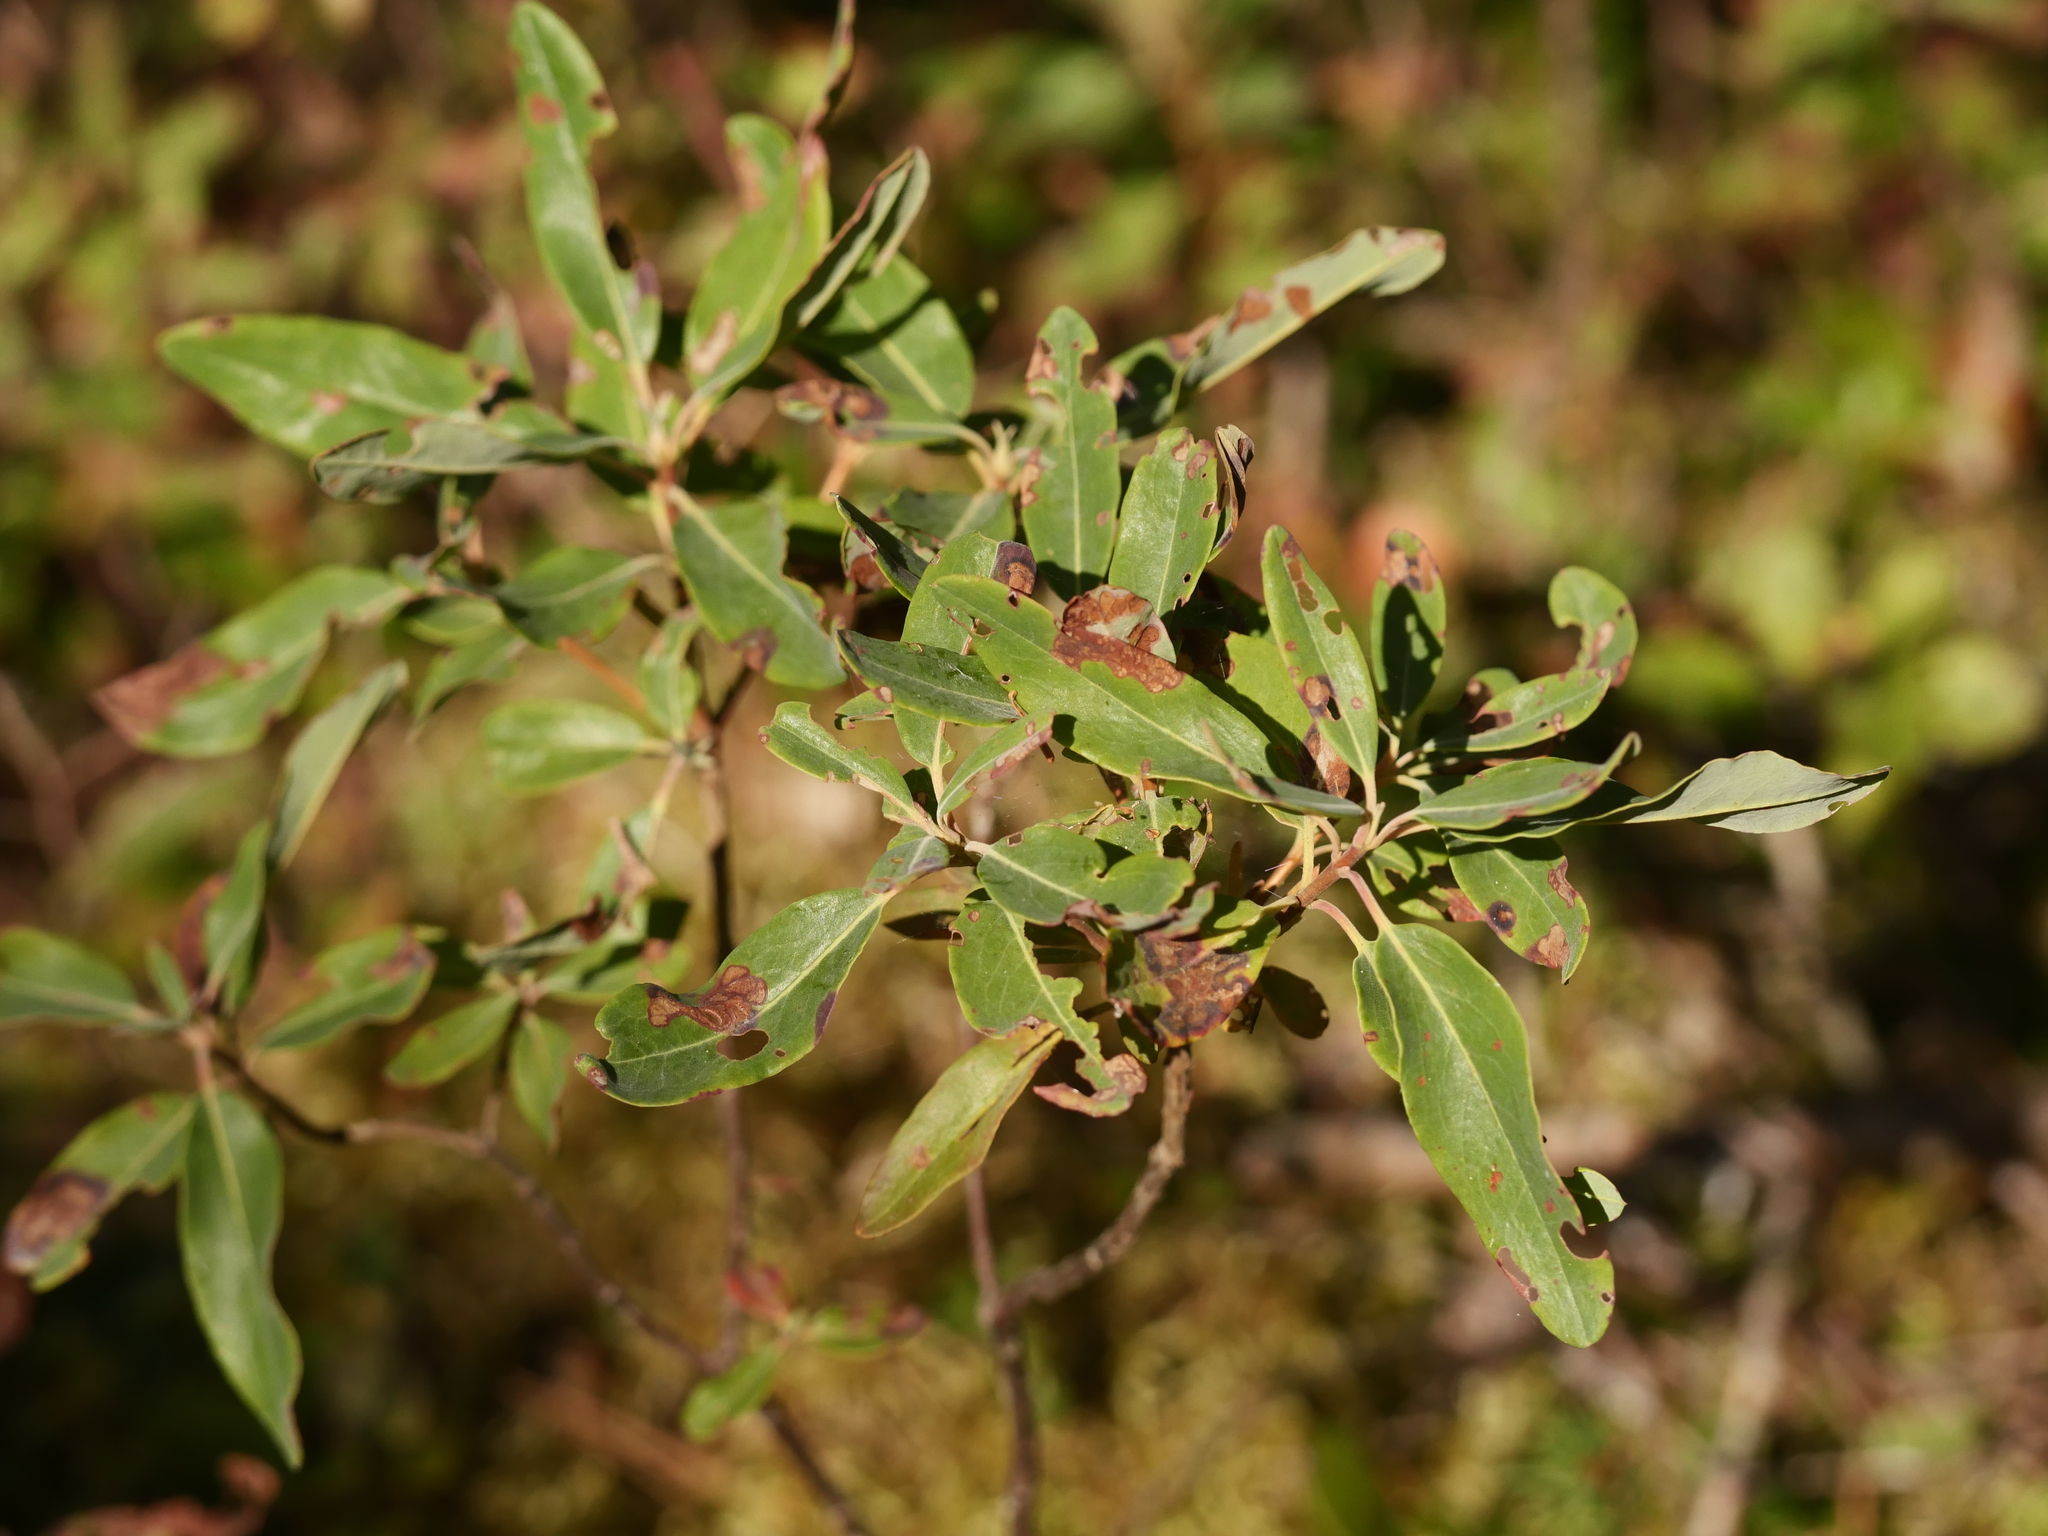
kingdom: Plantae
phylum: Tracheophyta
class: Magnoliopsida
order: Ericales
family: Ericaceae
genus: Kalmia
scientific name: Kalmia angustifolia
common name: Sheep-laurel
